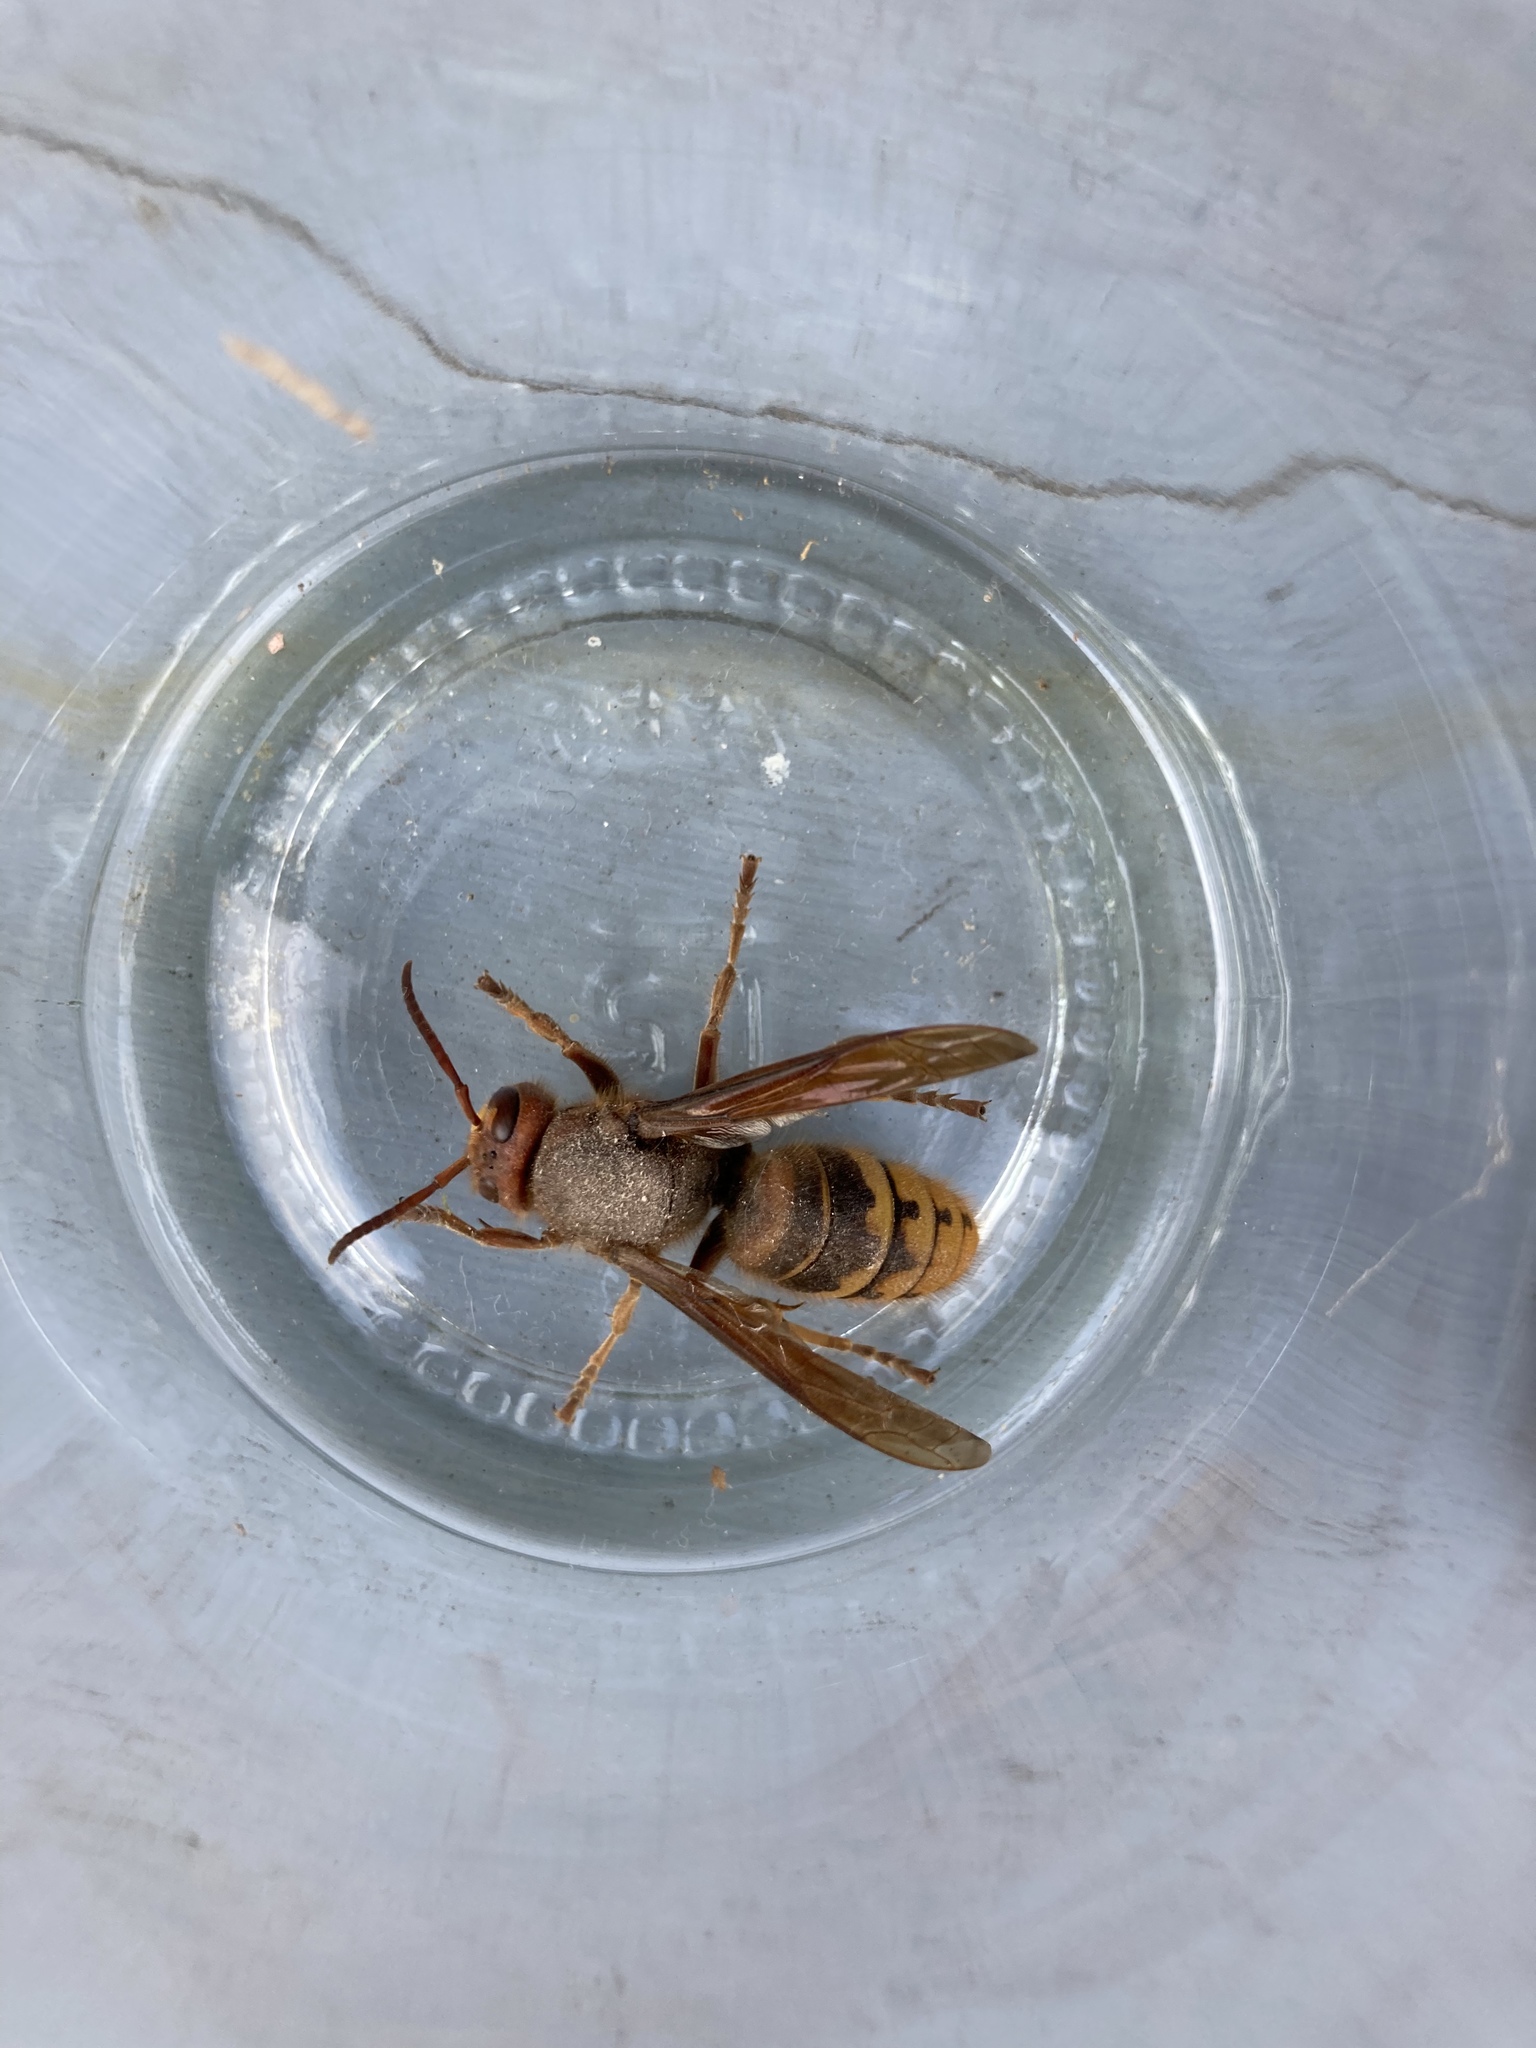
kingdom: Animalia
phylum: Arthropoda
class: Insecta
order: Hymenoptera
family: Vespidae
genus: Vespa
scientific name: Vespa crabro
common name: Hornet
